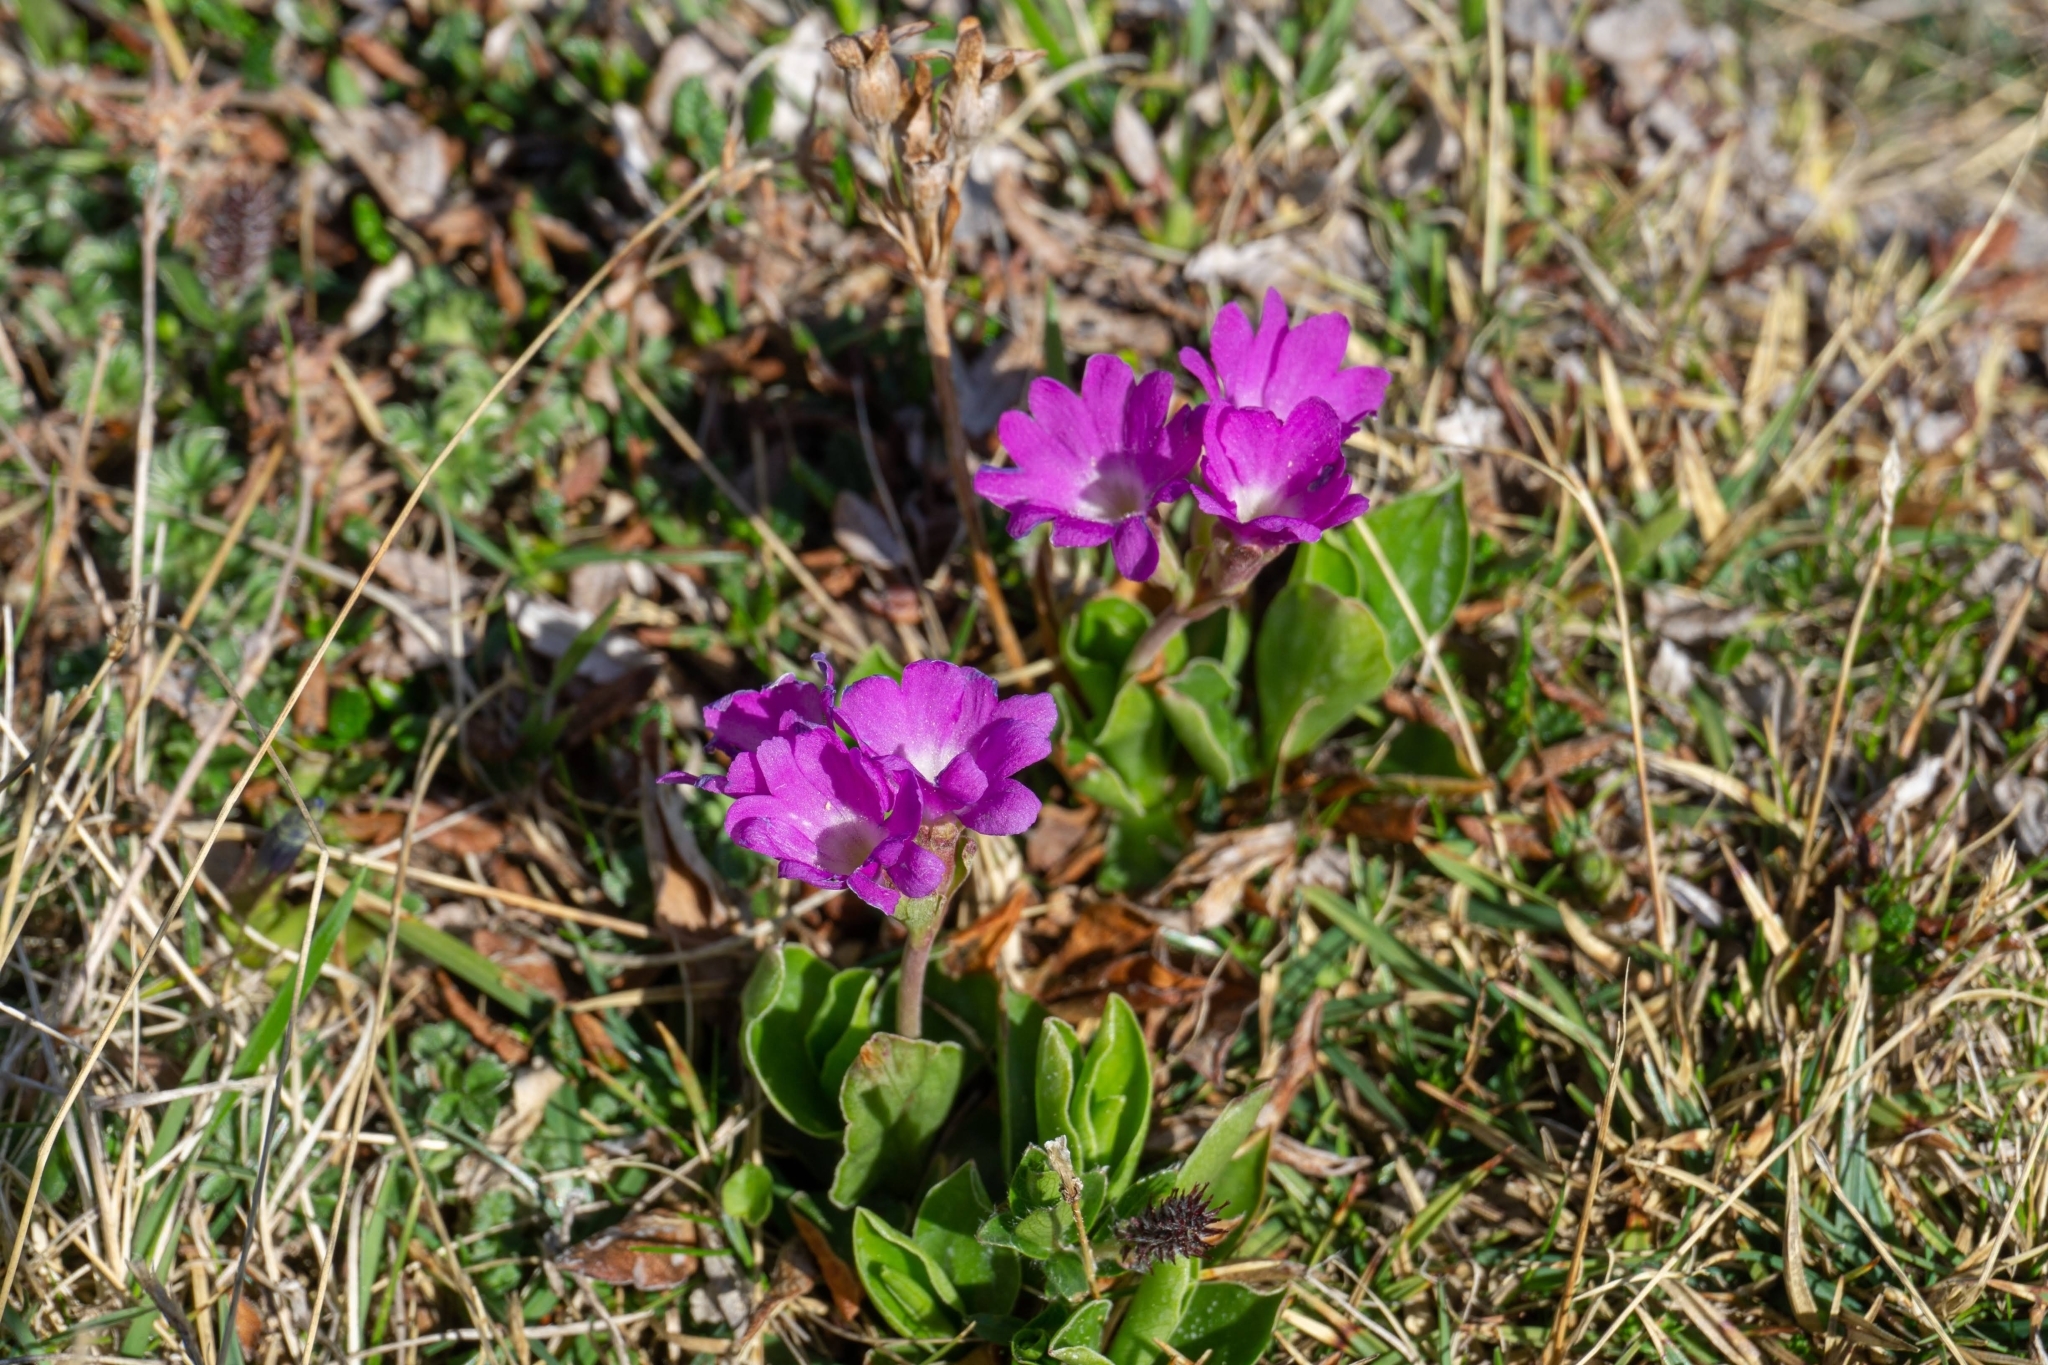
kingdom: Plantae
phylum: Tracheophyta
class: Magnoliopsida
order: Ericales
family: Primulaceae
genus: Primula
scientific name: Primula clusiana
